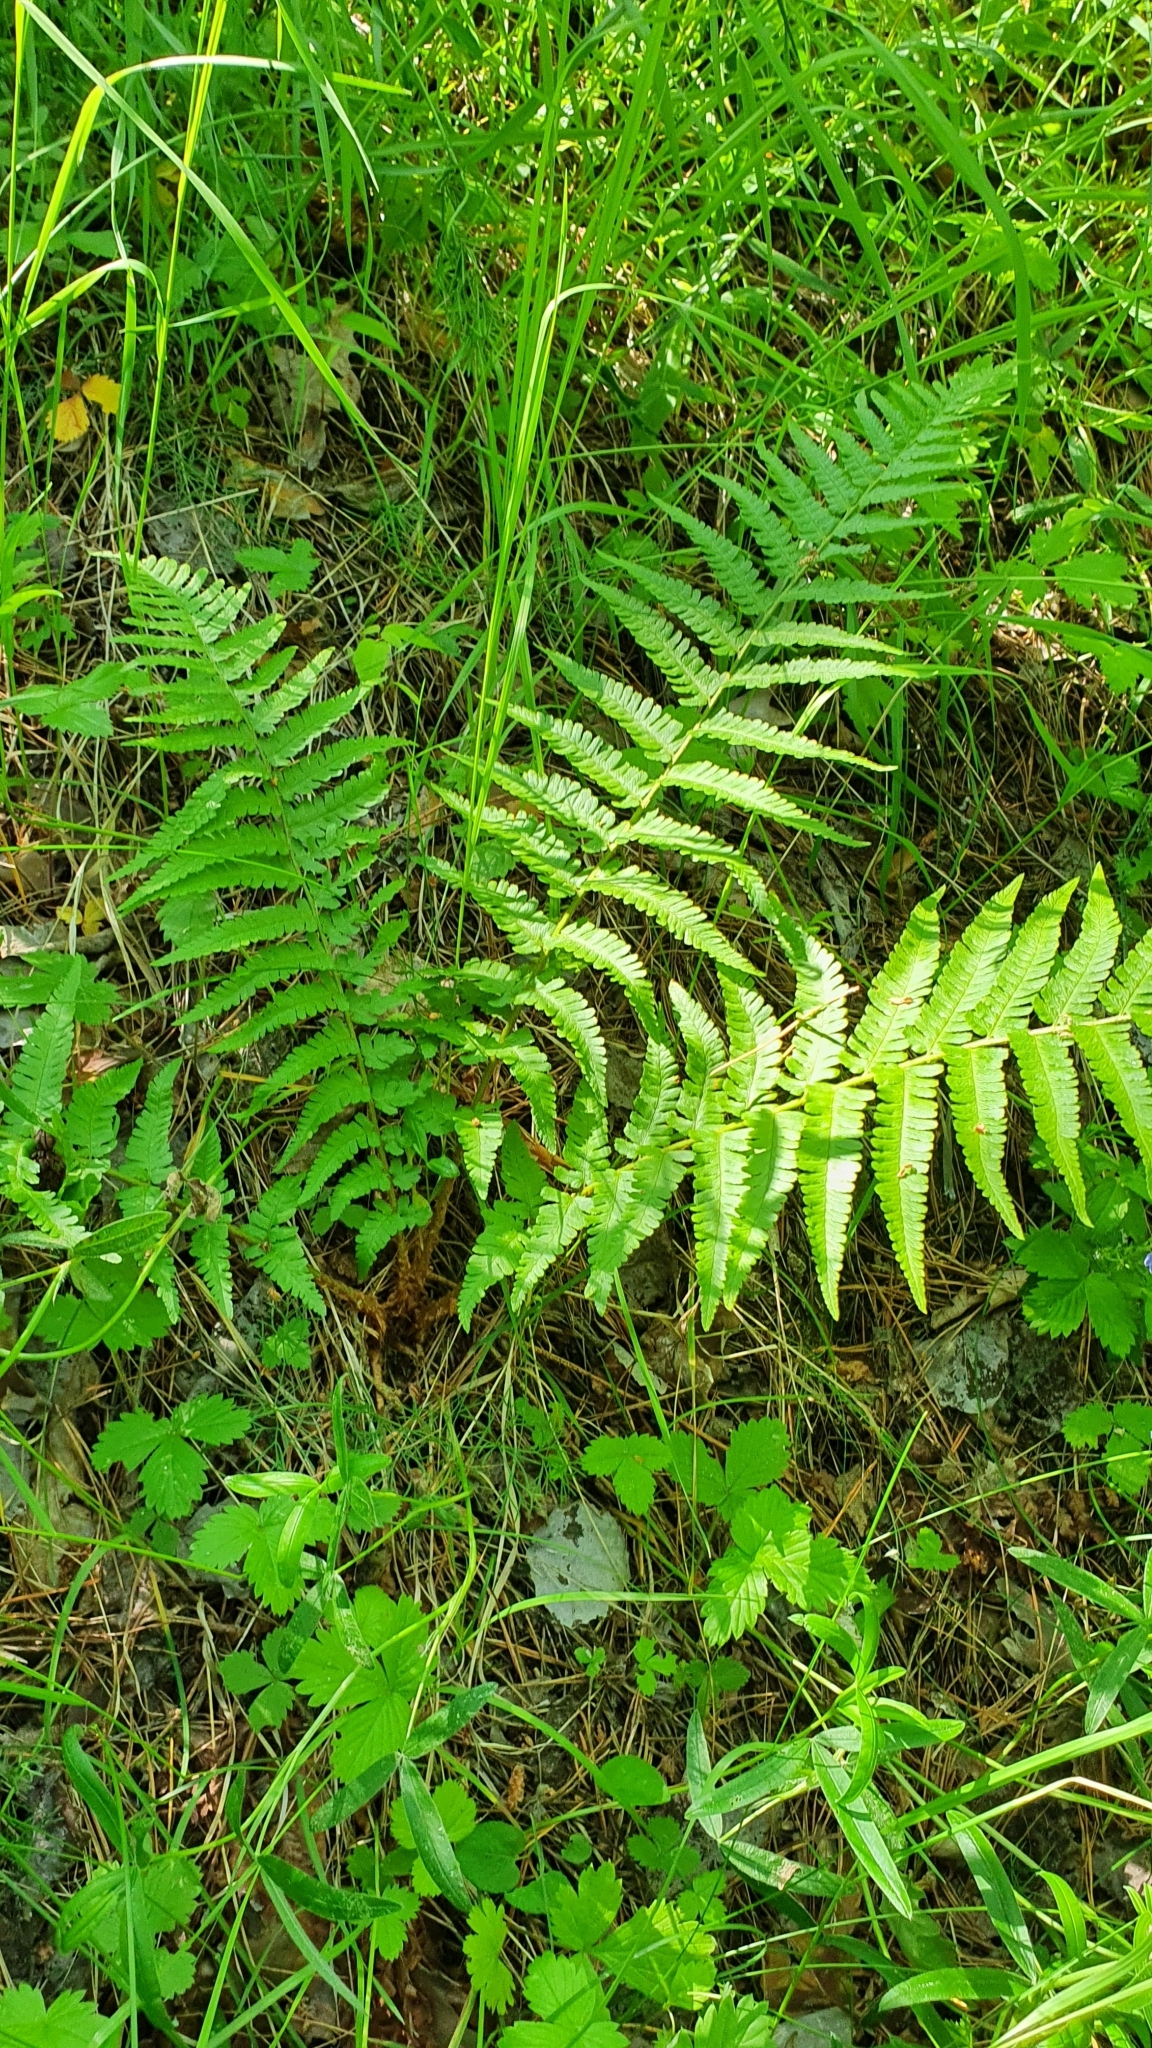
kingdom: Plantae
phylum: Tracheophyta
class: Polypodiopsida
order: Polypodiales
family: Dryopteridaceae
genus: Dryopteris
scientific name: Dryopteris filix-mas
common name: Male fern
